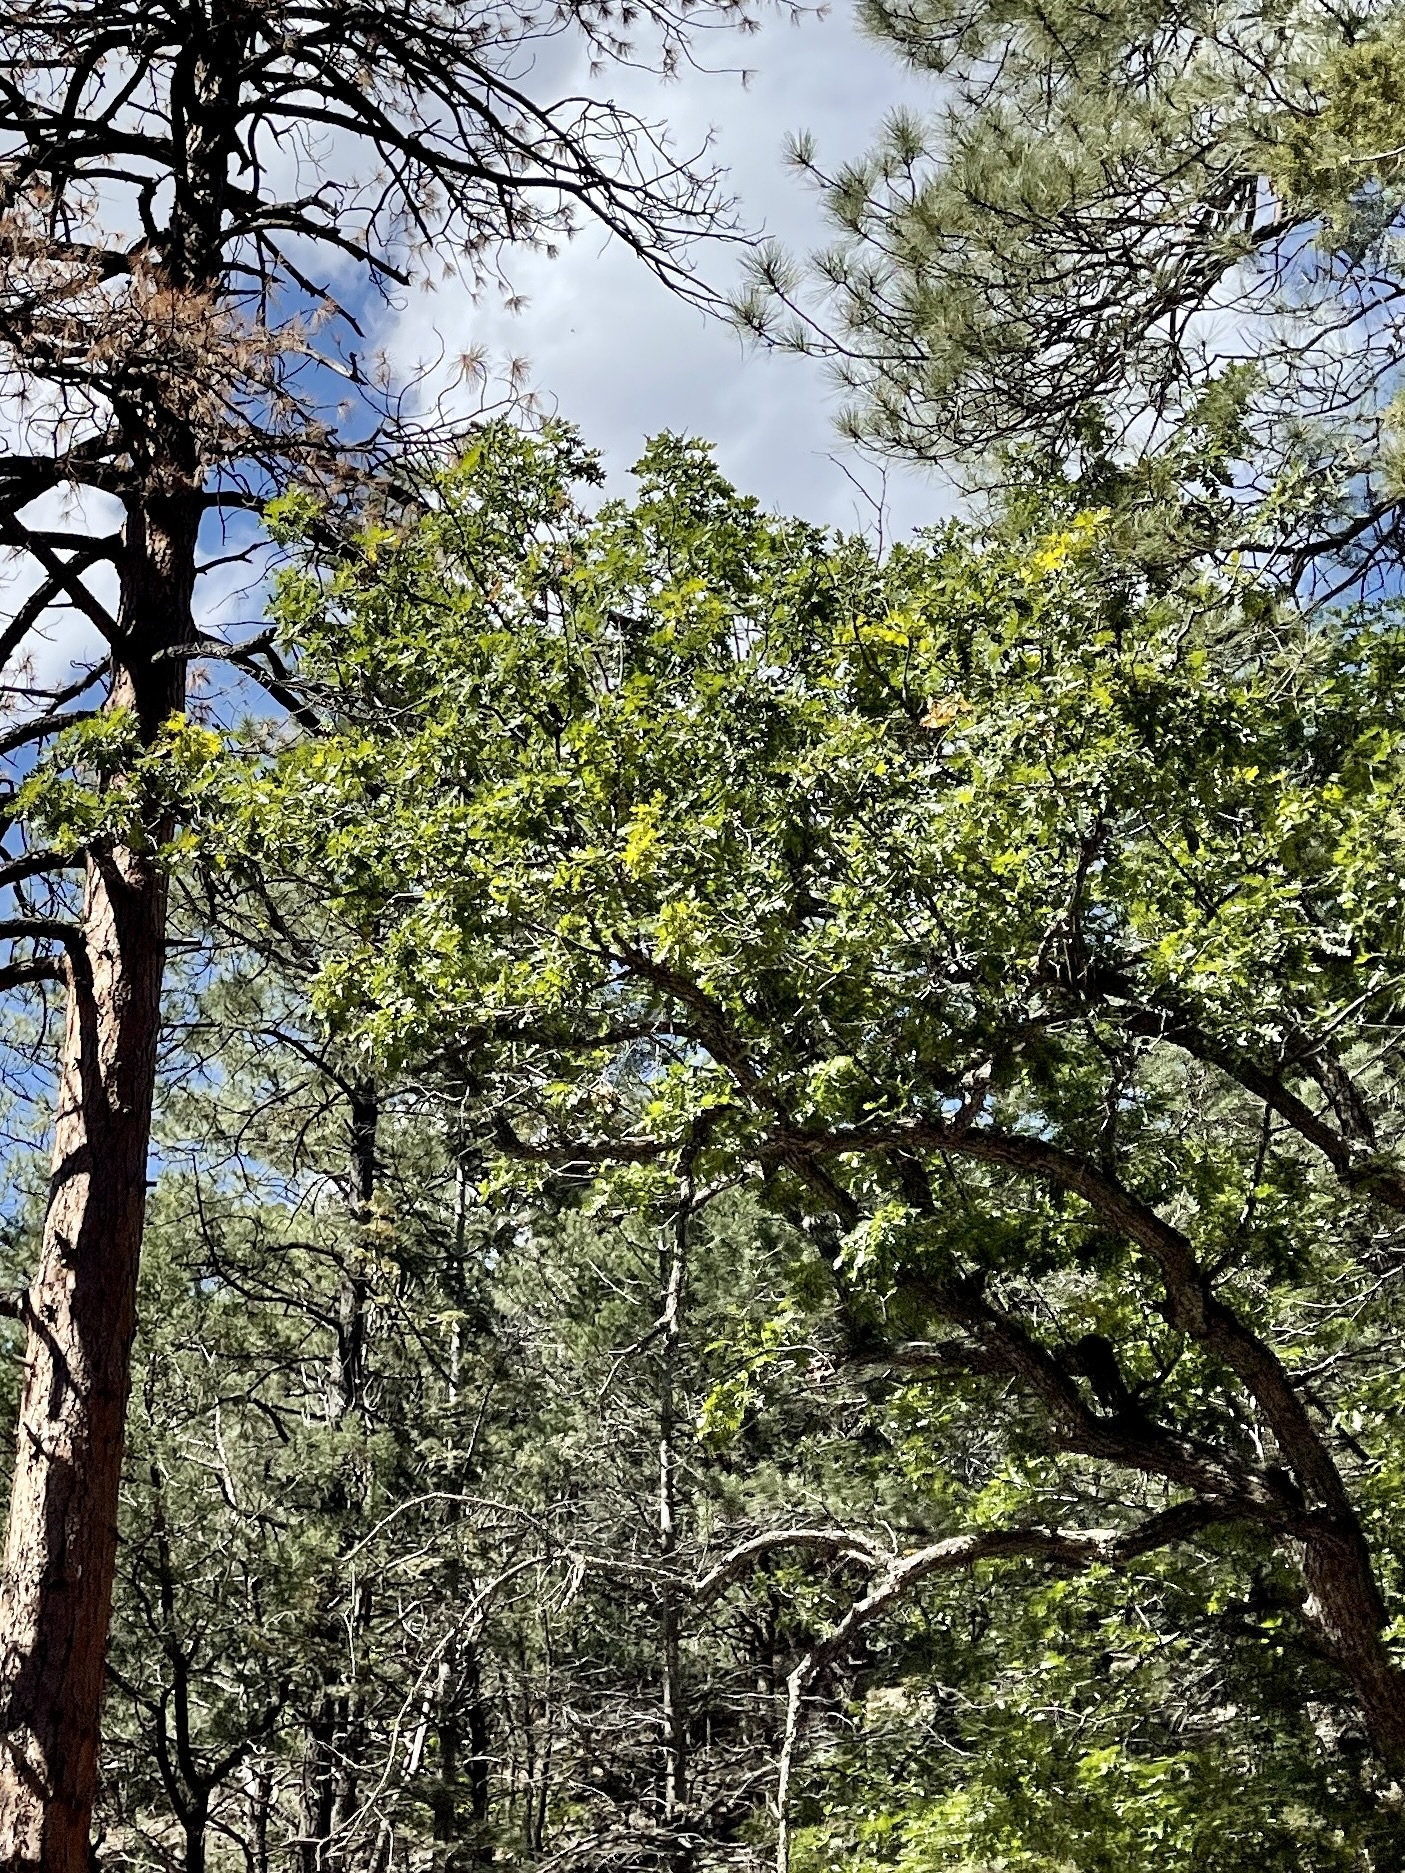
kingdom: Plantae
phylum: Tracheophyta
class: Magnoliopsida
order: Fagales
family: Fagaceae
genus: Quercus
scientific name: Quercus gambelii
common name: Gambel oak
